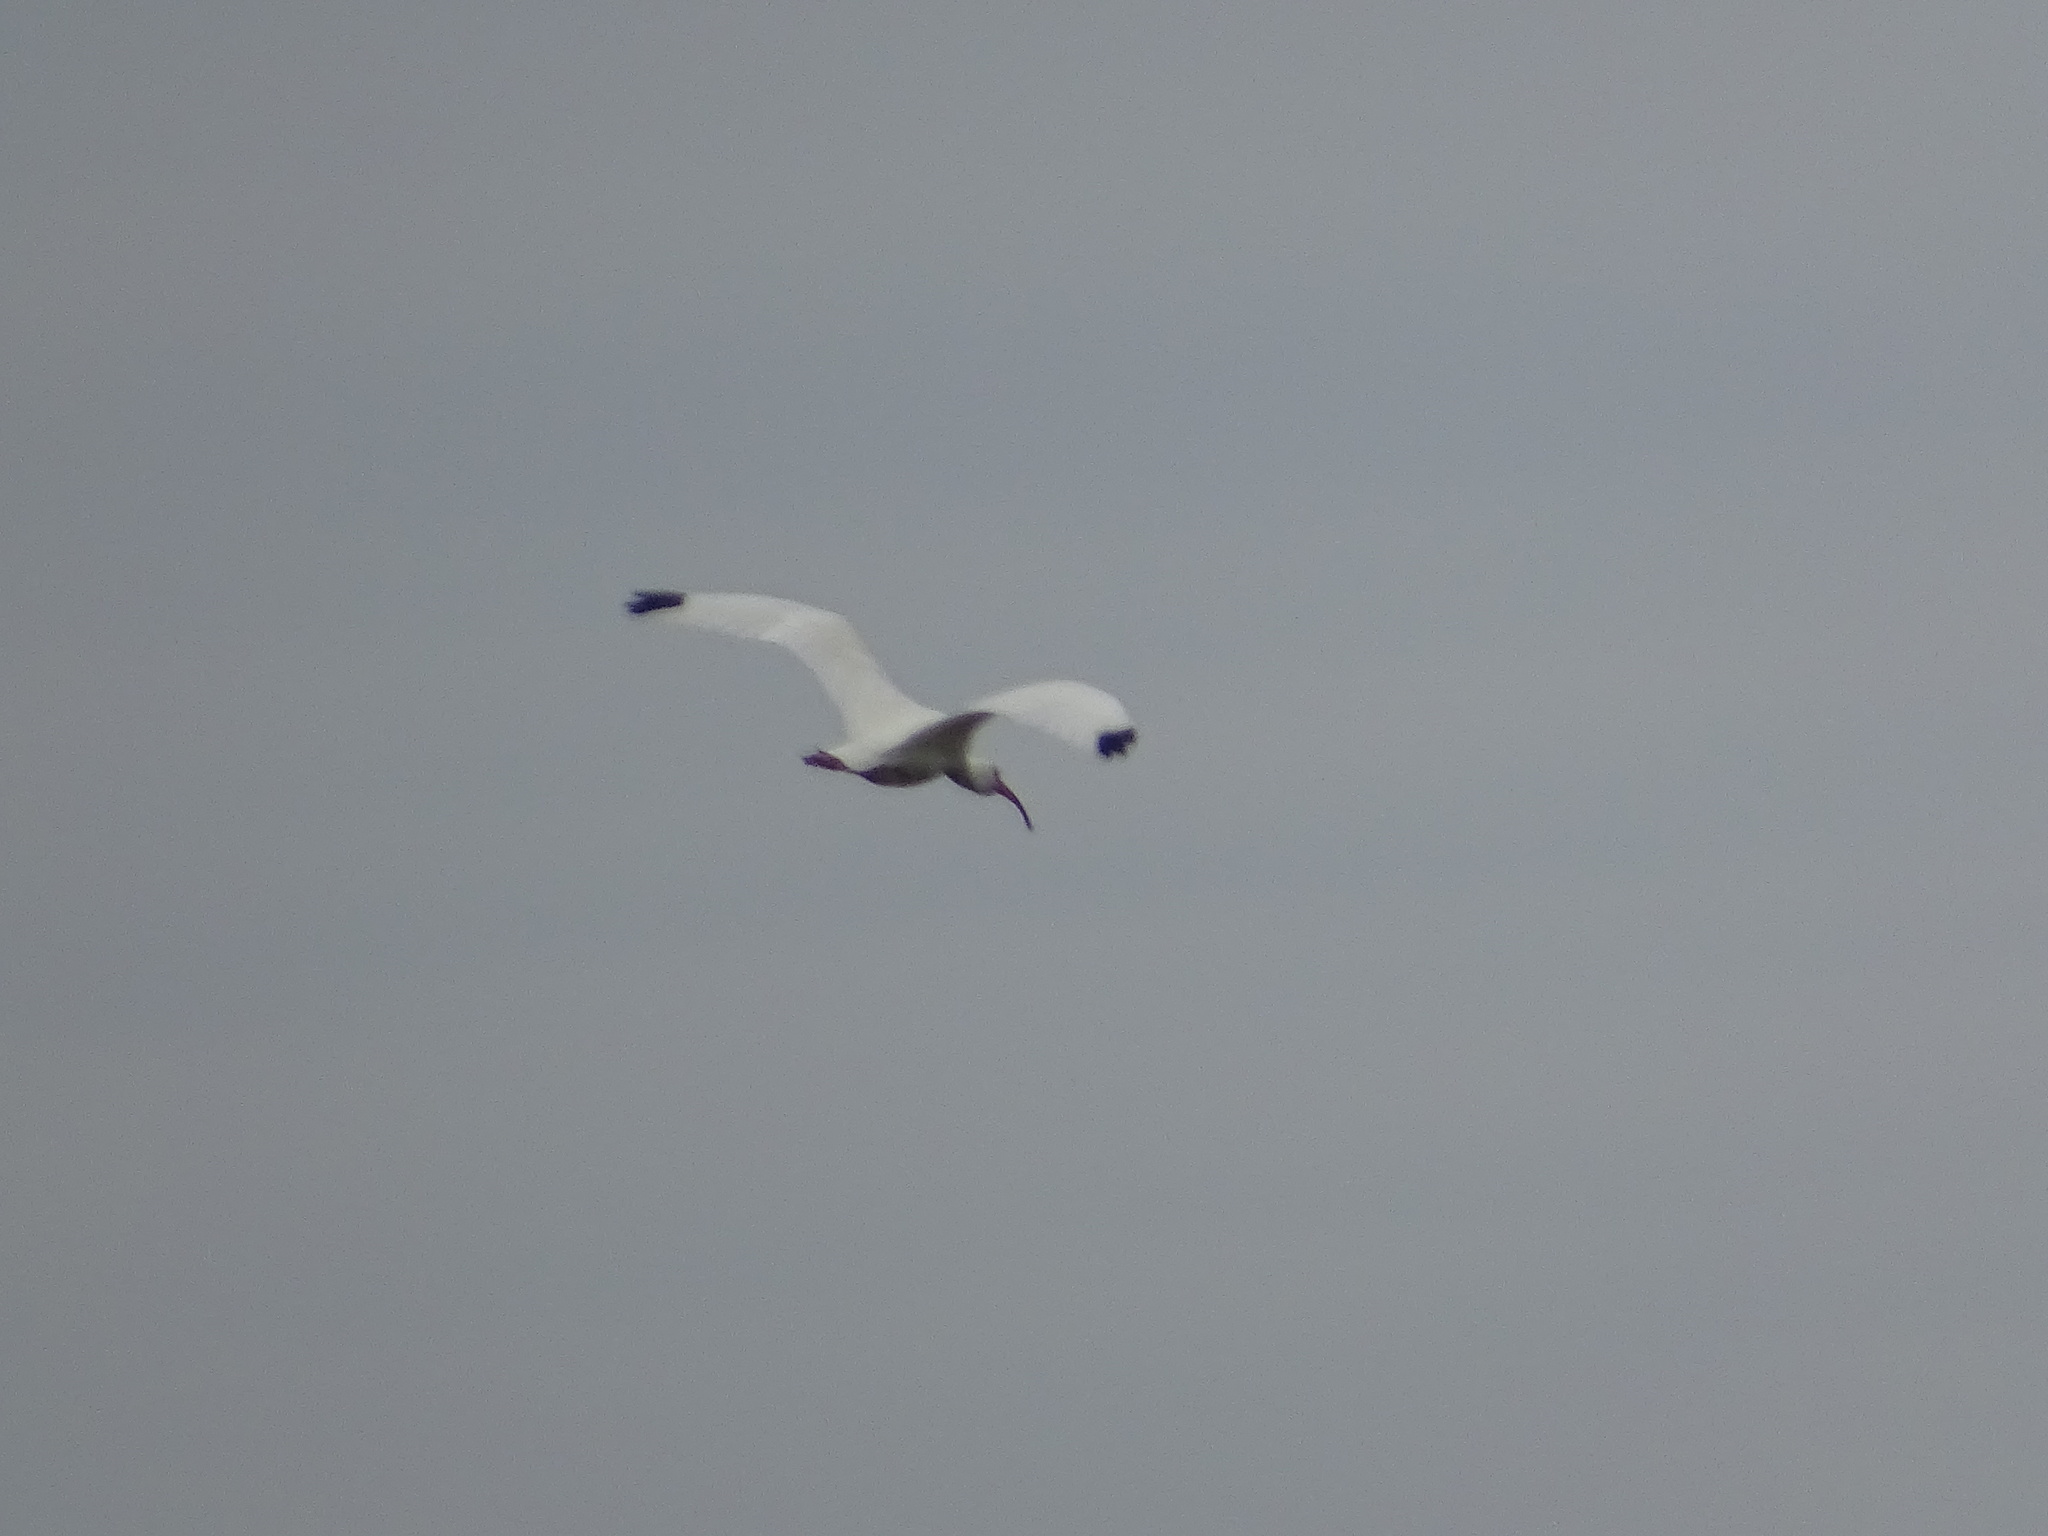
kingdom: Animalia
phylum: Chordata
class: Aves
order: Pelecaniformes
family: Threskiornithidae
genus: Eudocimus
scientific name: Eudocimus albus
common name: White ibis
